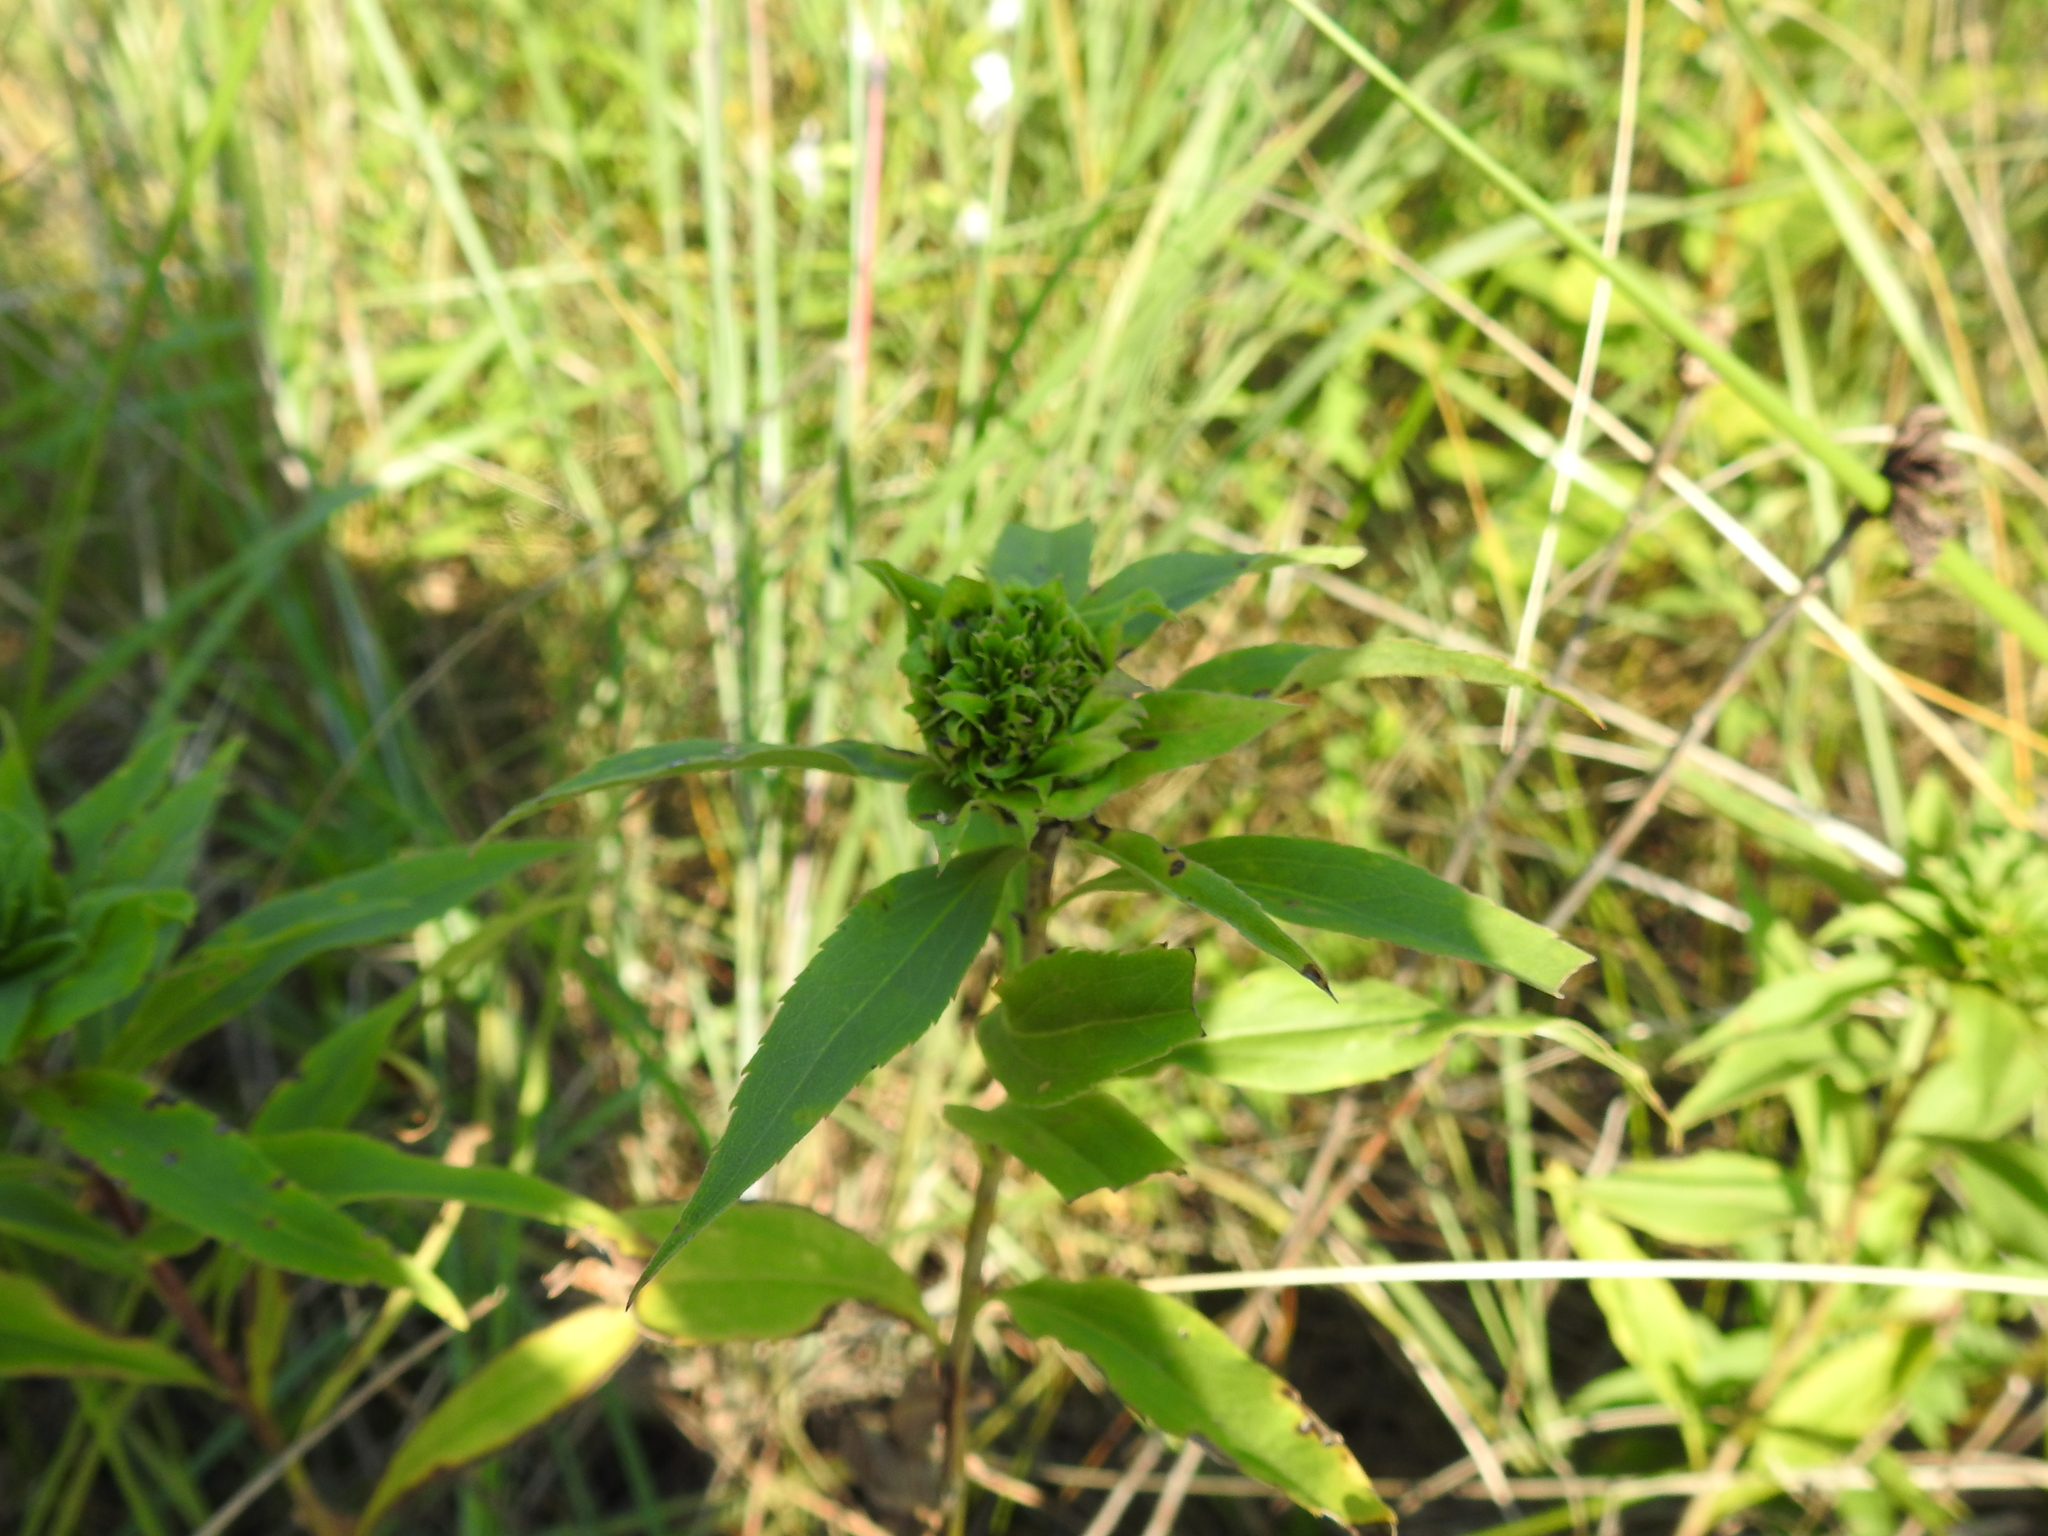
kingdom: Animalia
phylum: Arthropoda
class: Insecta
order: Diptera
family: Cecidomyiidae
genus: Rhopalomyia
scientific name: Rhopalomyia capitata
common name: Giant goldenrod bunch gall midge
